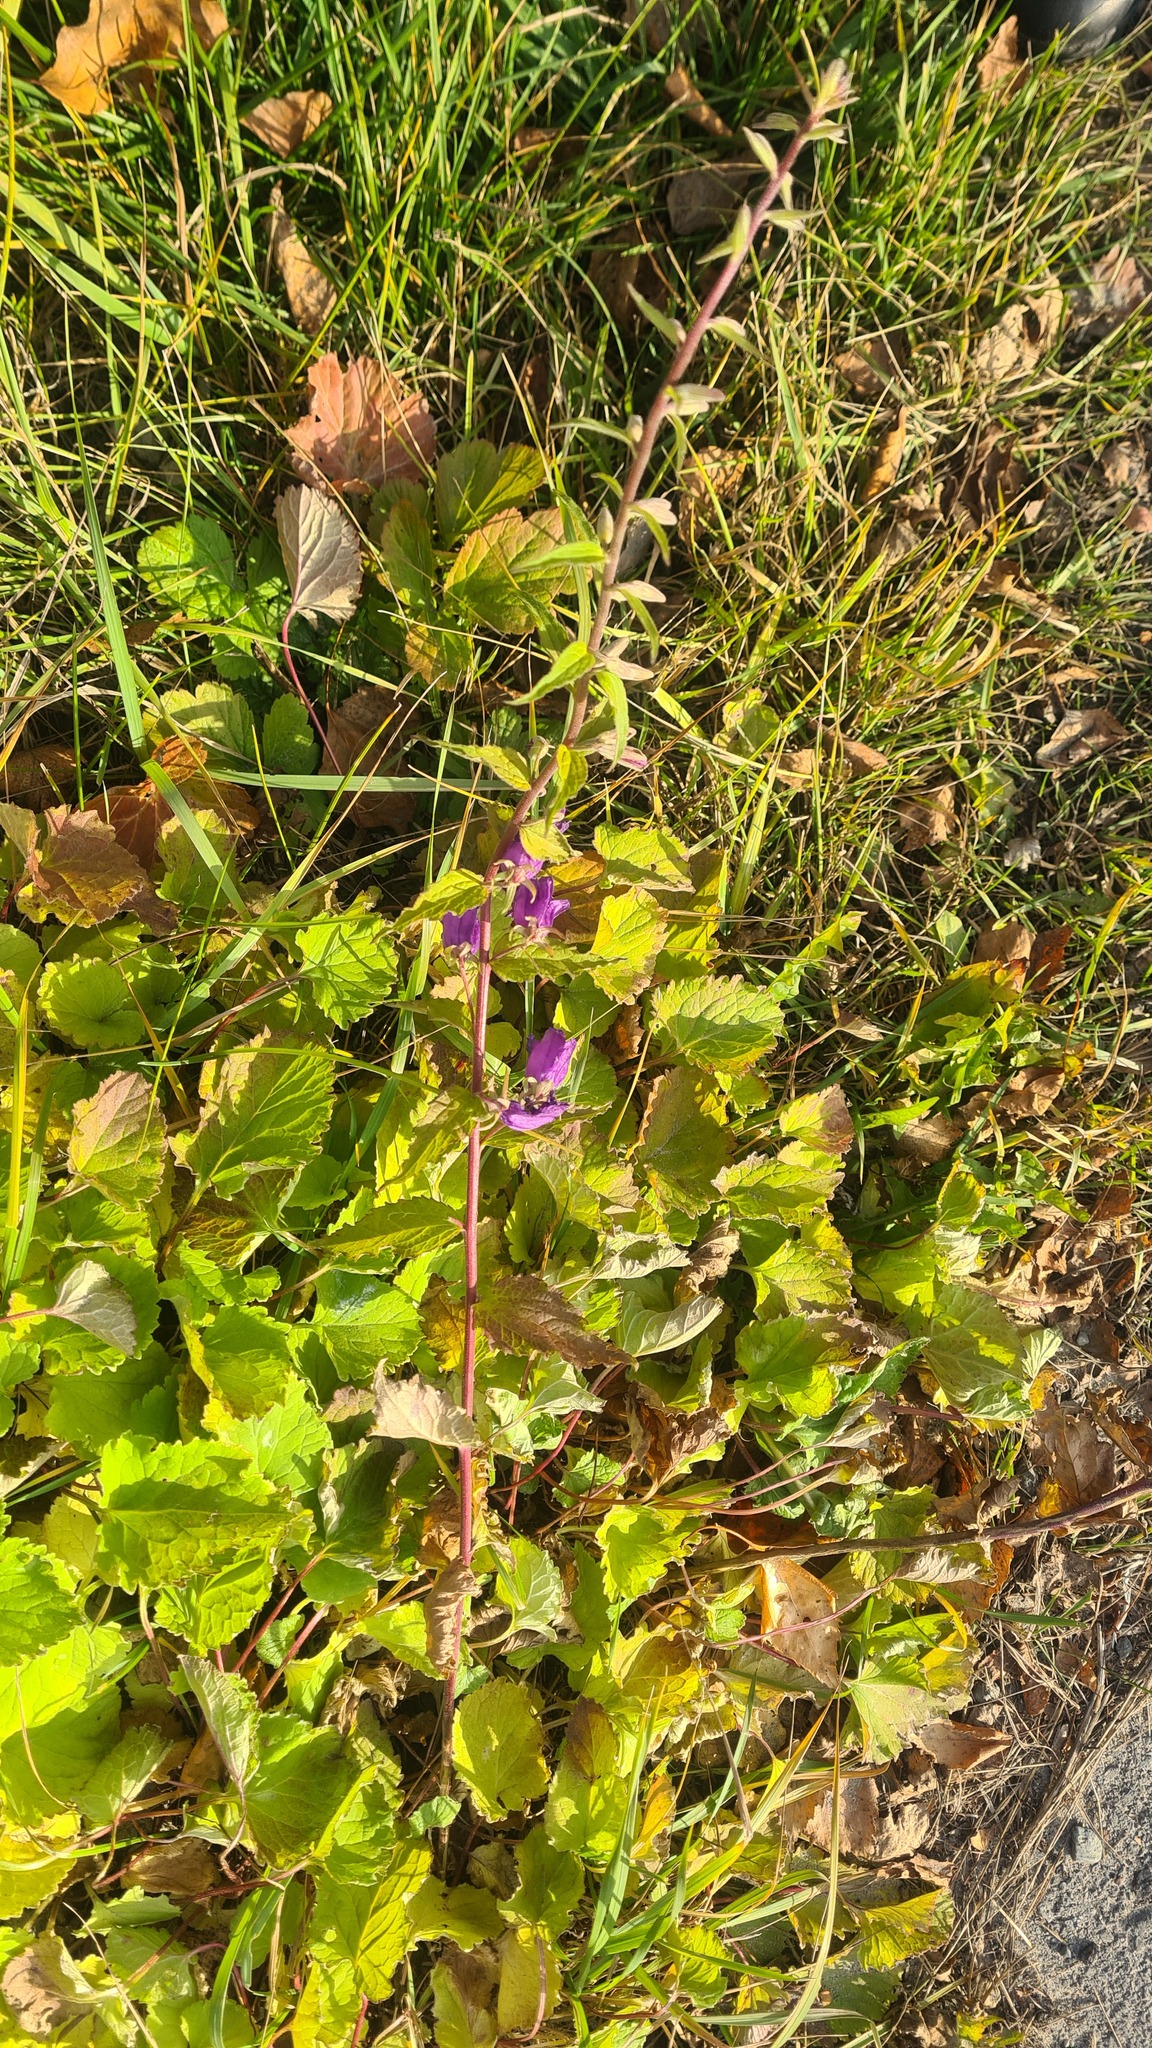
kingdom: Plantae
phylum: Tracheophyta
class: Magnoliopsida
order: Asterales
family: Campanulaceae
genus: Campanula
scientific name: Campanula rapunculoides
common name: Creeping bellflower
